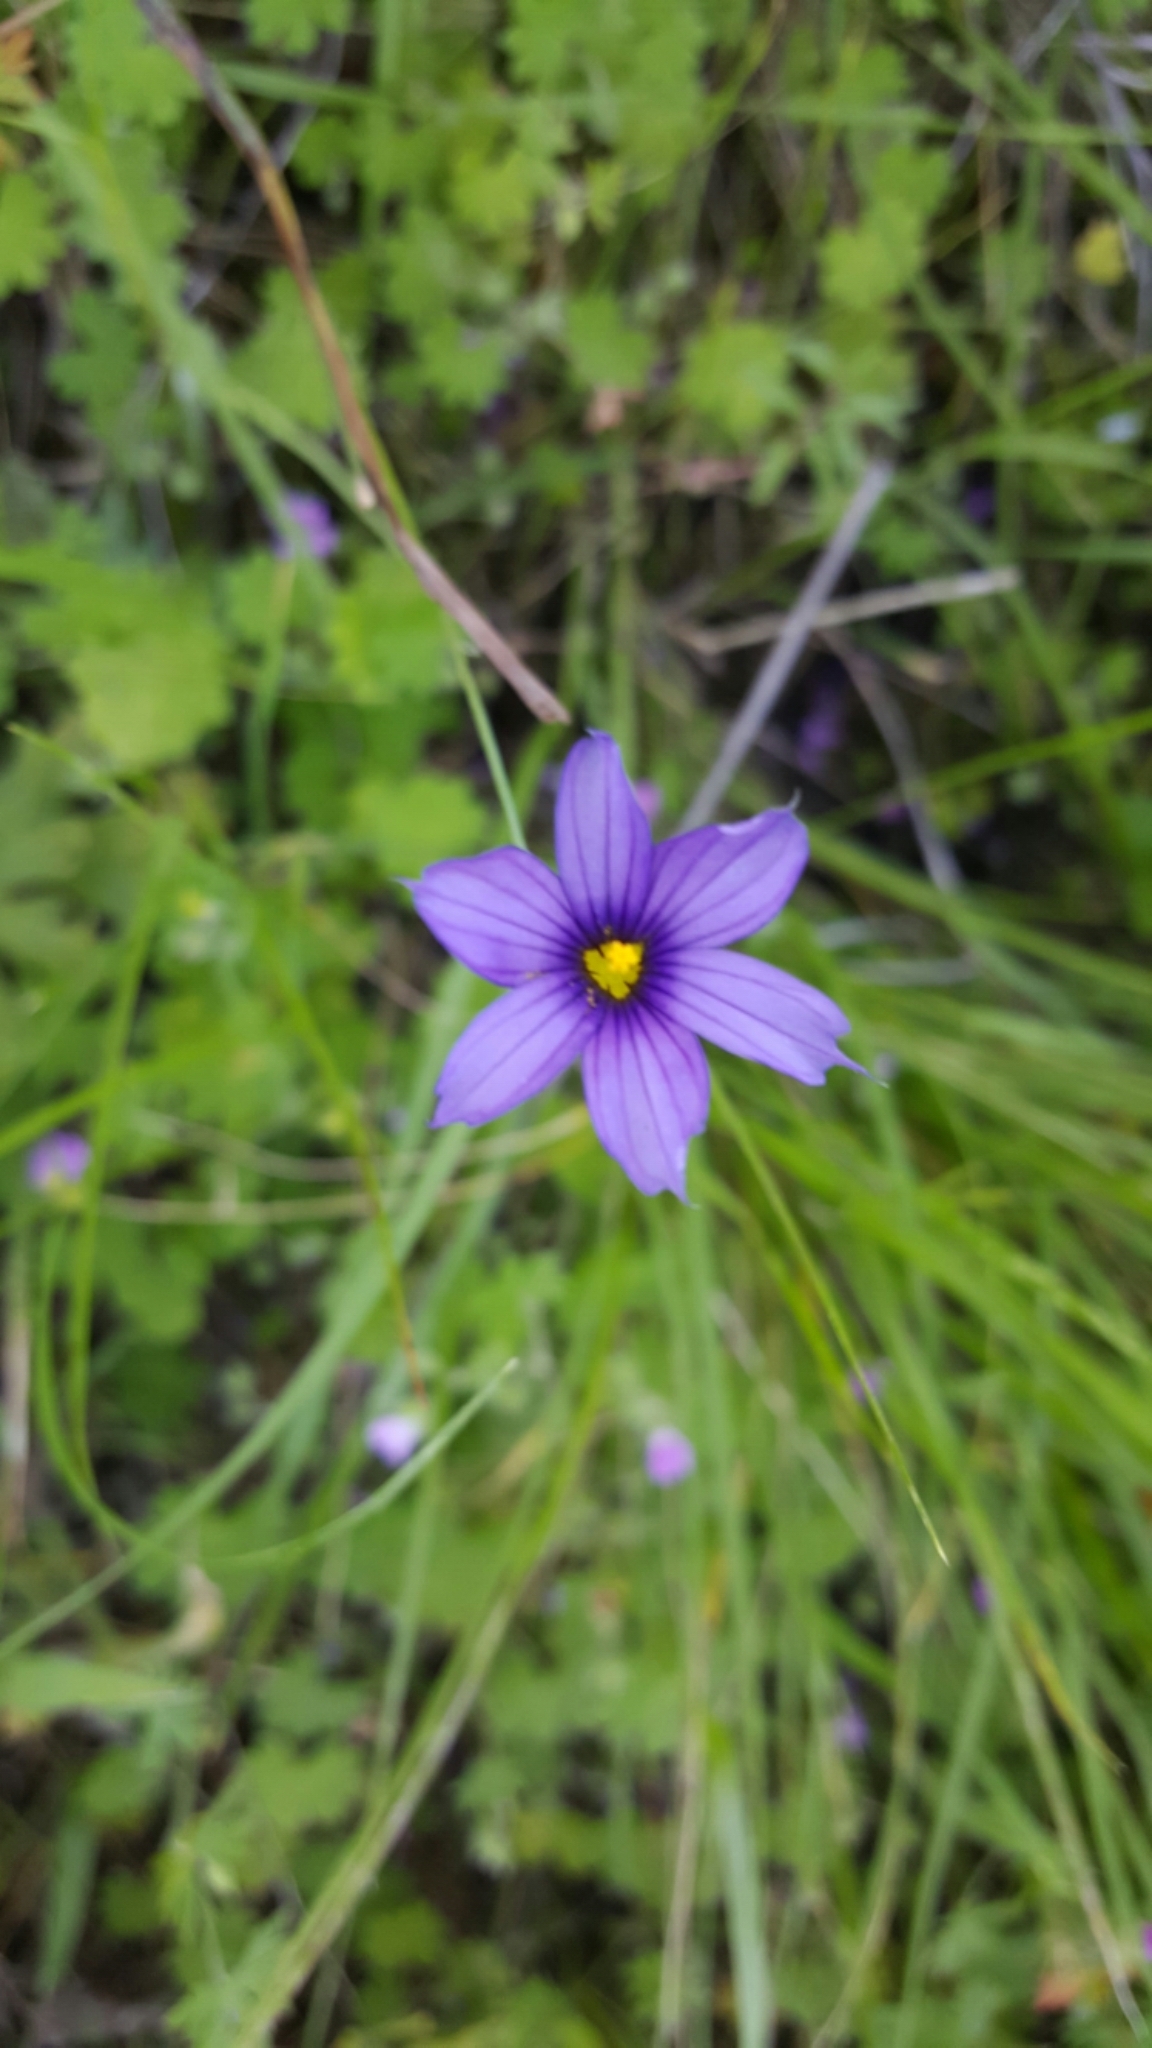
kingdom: Plantae
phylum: Tracheophyta
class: Liliopsida
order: Asparagales
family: Iridaceae
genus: Sisyrinchium
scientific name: Sisyrinchium bellum
